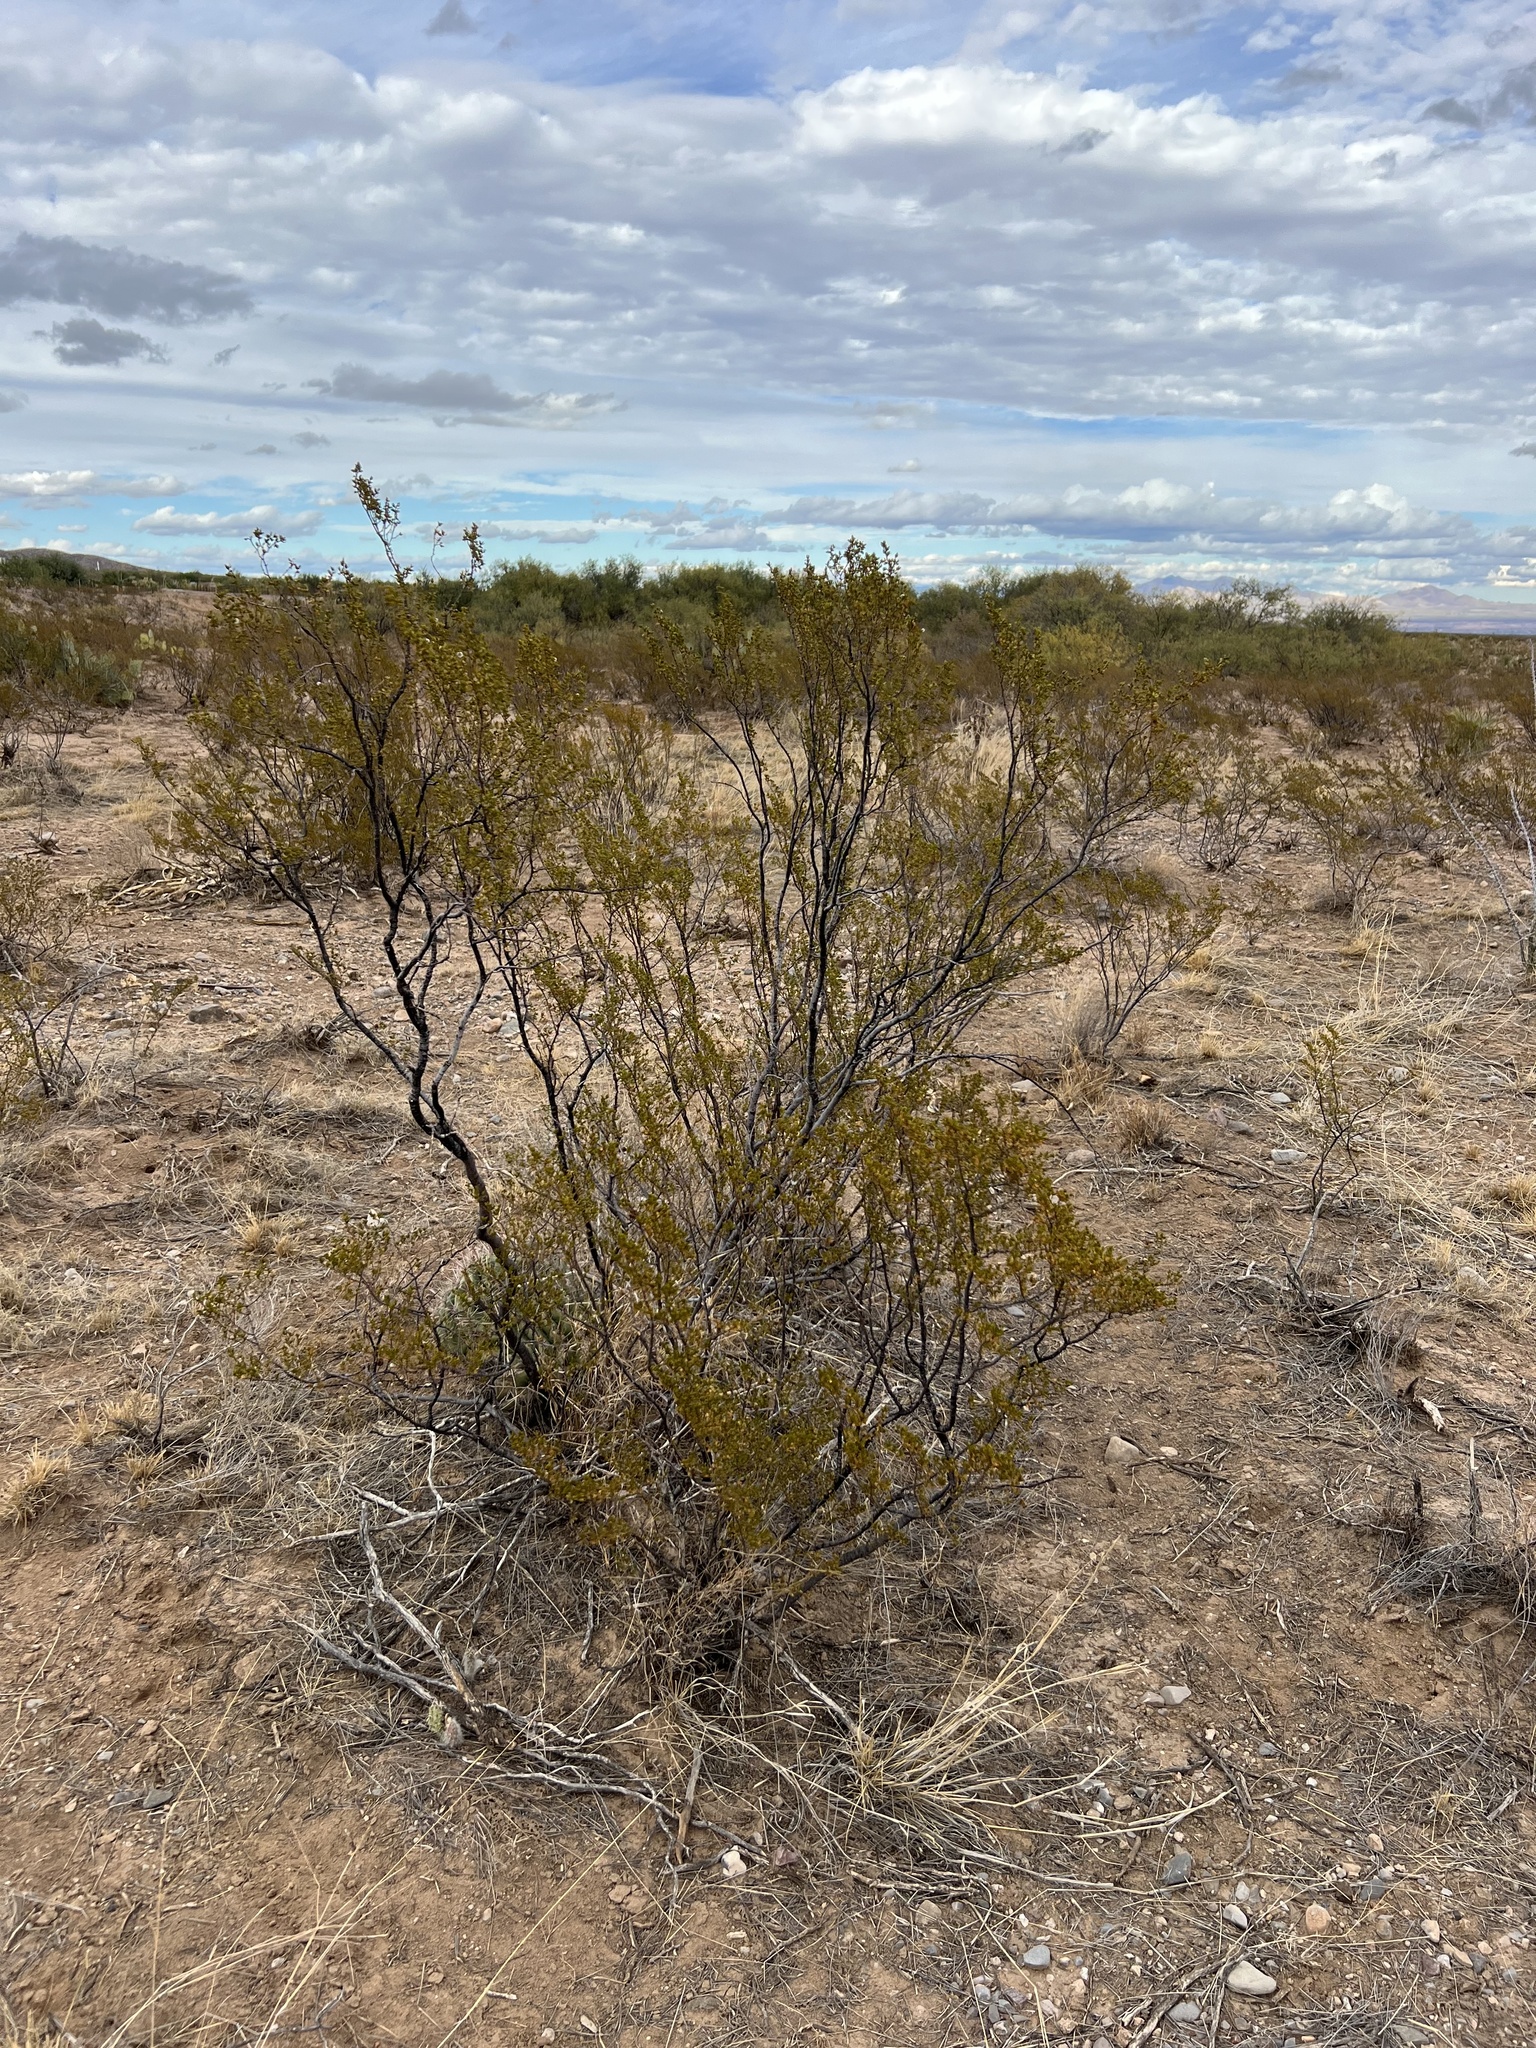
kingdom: Plantae
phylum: Tracheophyta
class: Magnoliopsida
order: Zygophyllales
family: Zygophyllaceae
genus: Larrea
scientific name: Larrea tridentata
